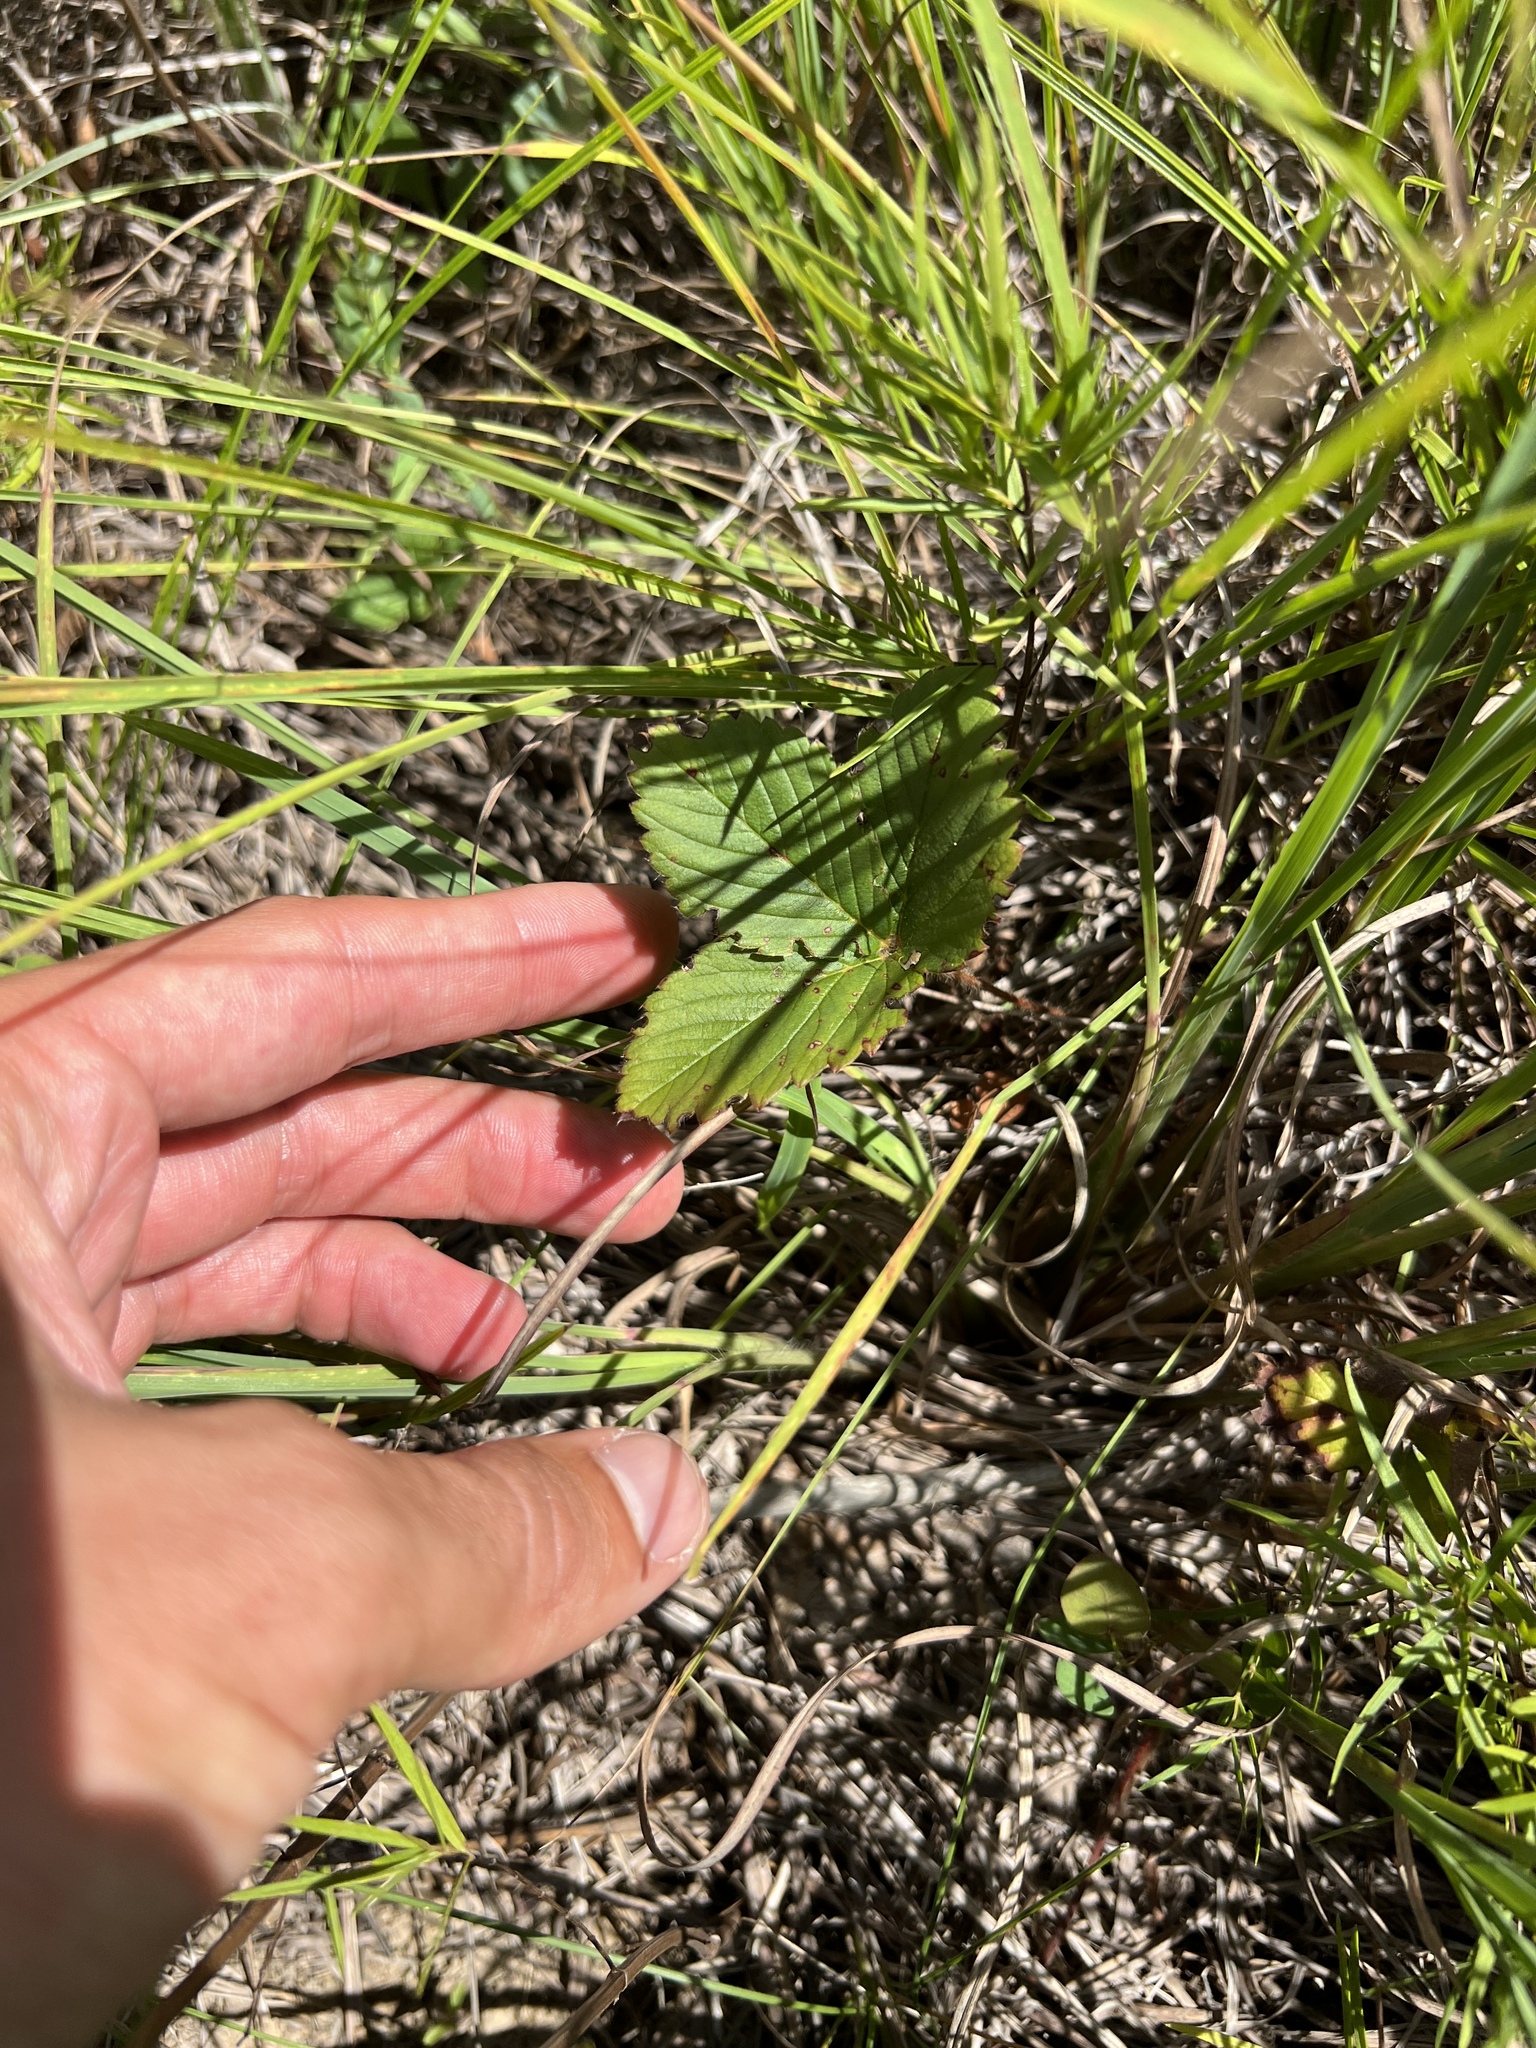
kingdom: Plantae
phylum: Tracheophyta
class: Magnoliopsida
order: Rosales
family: Rosaceae
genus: Fragaria
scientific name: Fragaria virginiana
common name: Thickleaved wild strawberry
